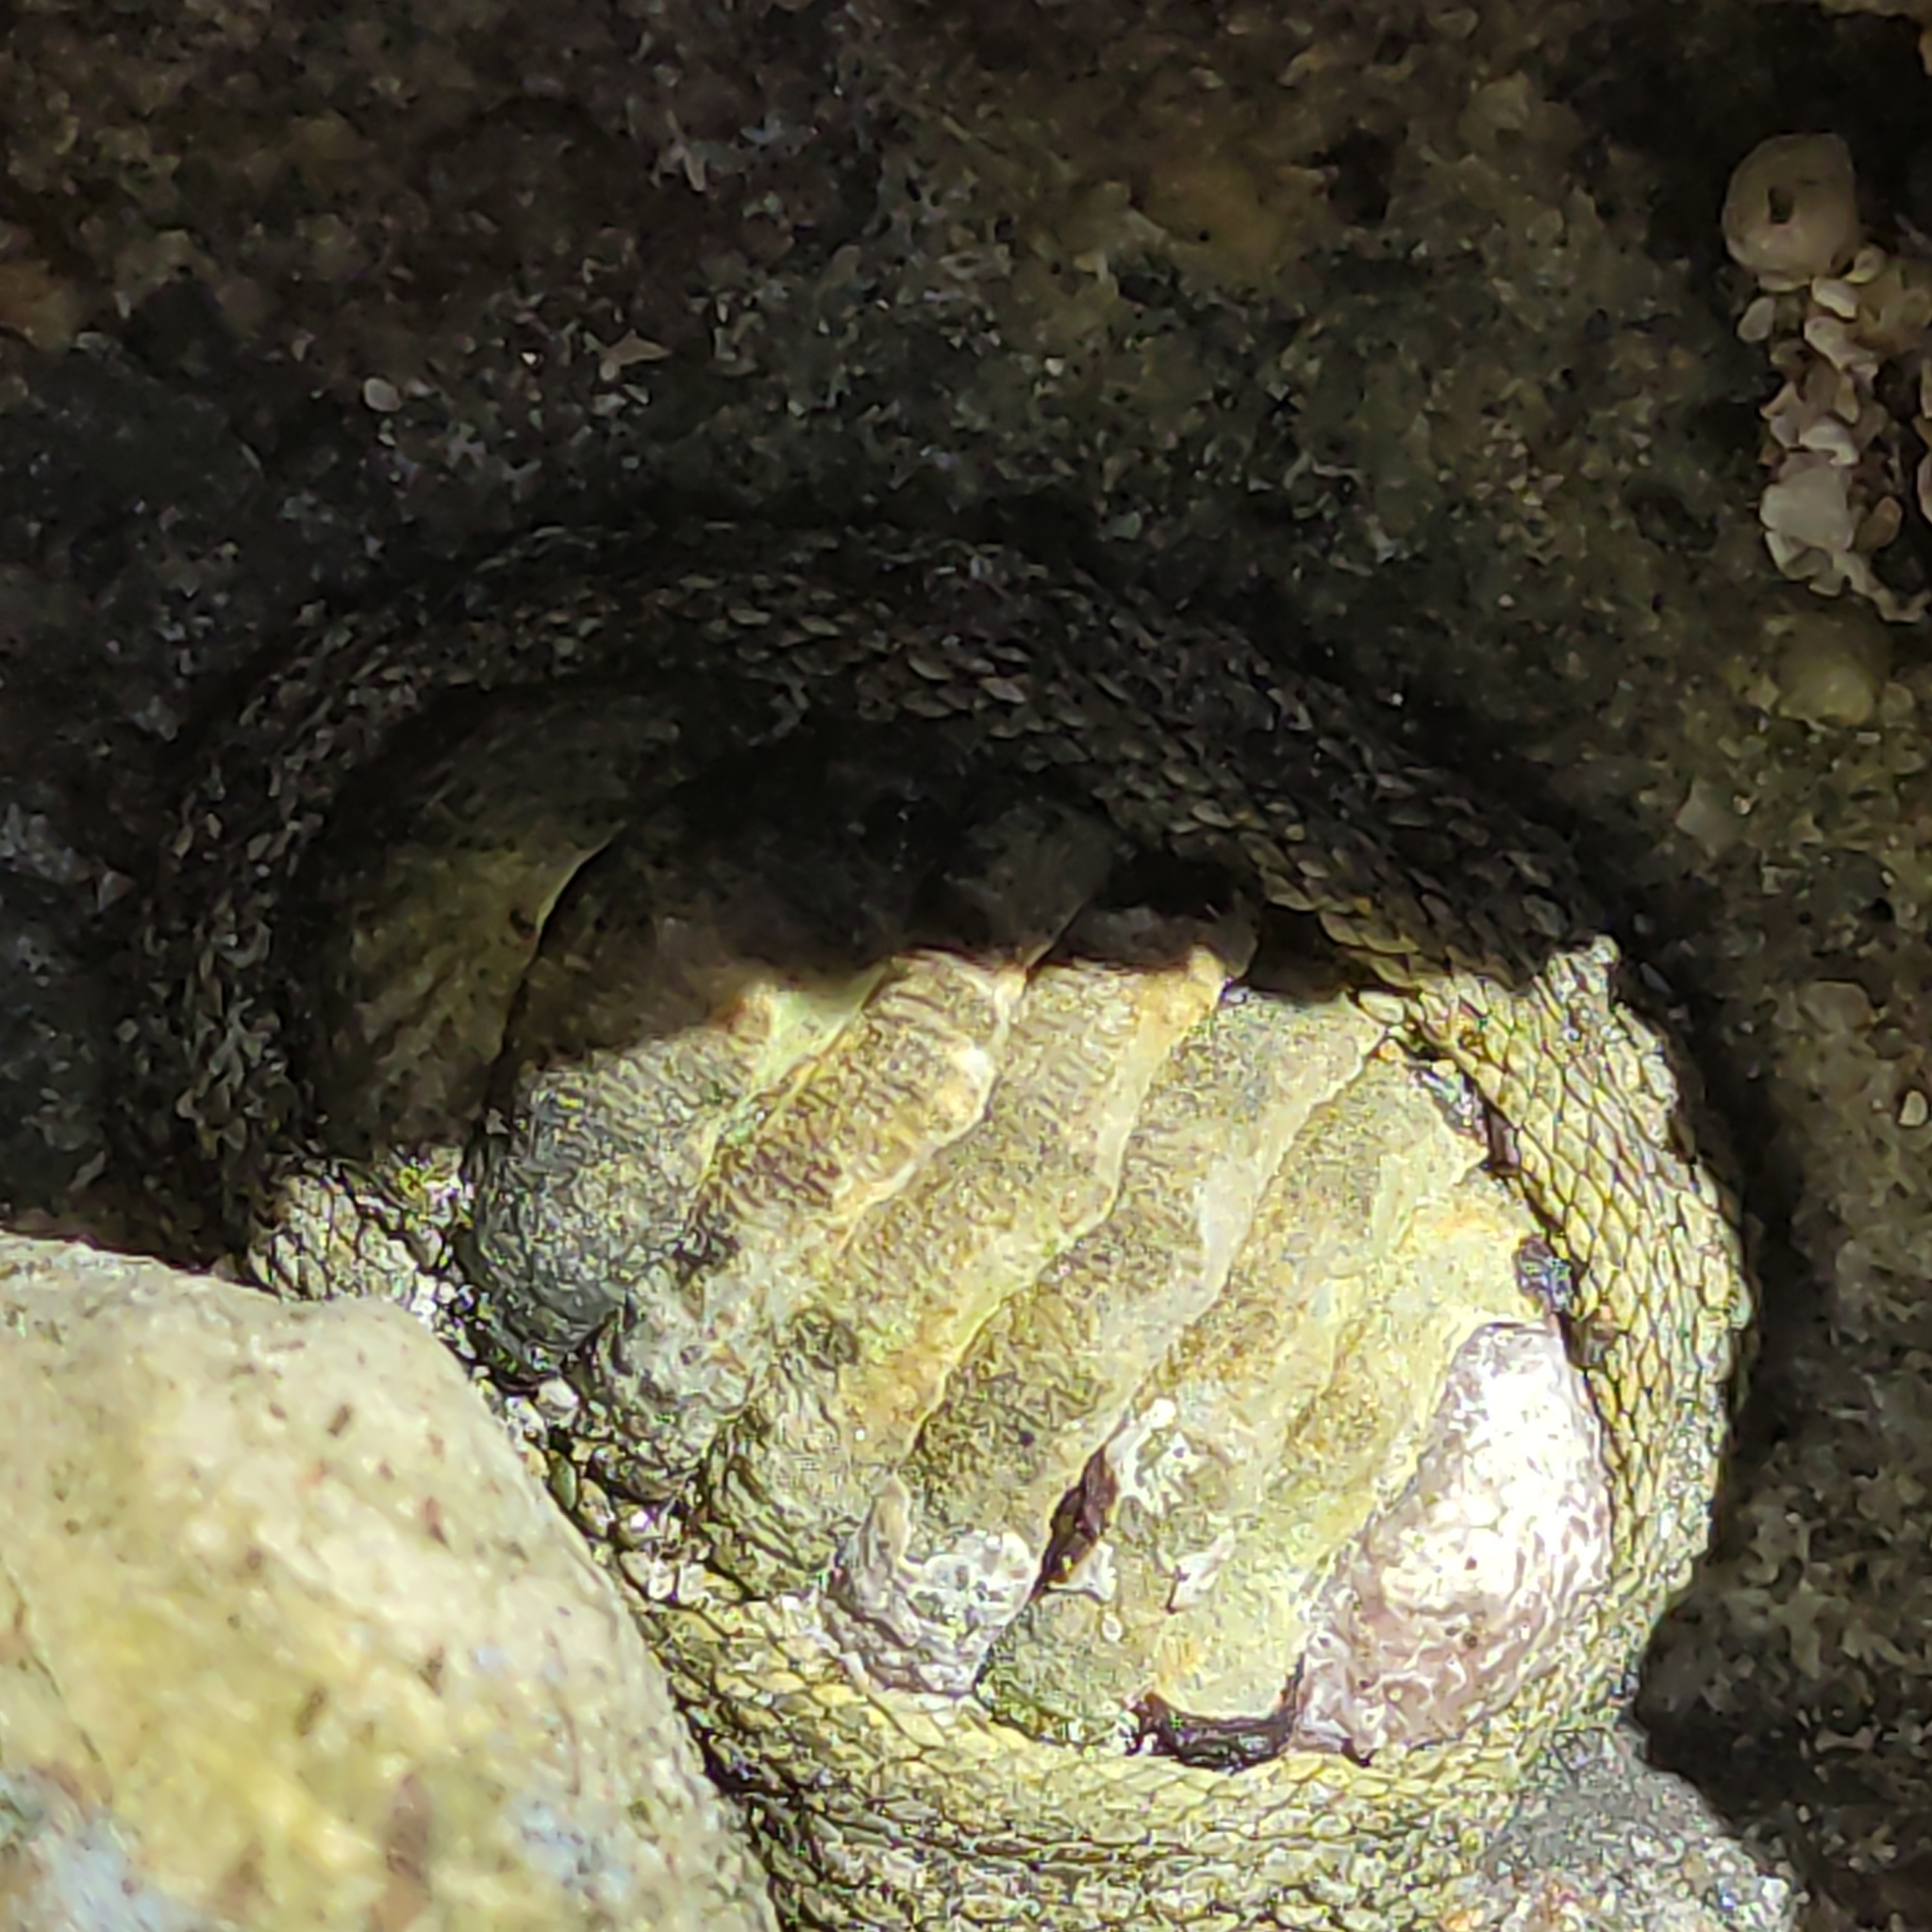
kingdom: Animalia
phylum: Mollusca
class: Polyplacophora
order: Chitonida
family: Chitonidae
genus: Sypharochiton
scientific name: Sypharochiton pelliserpentis
